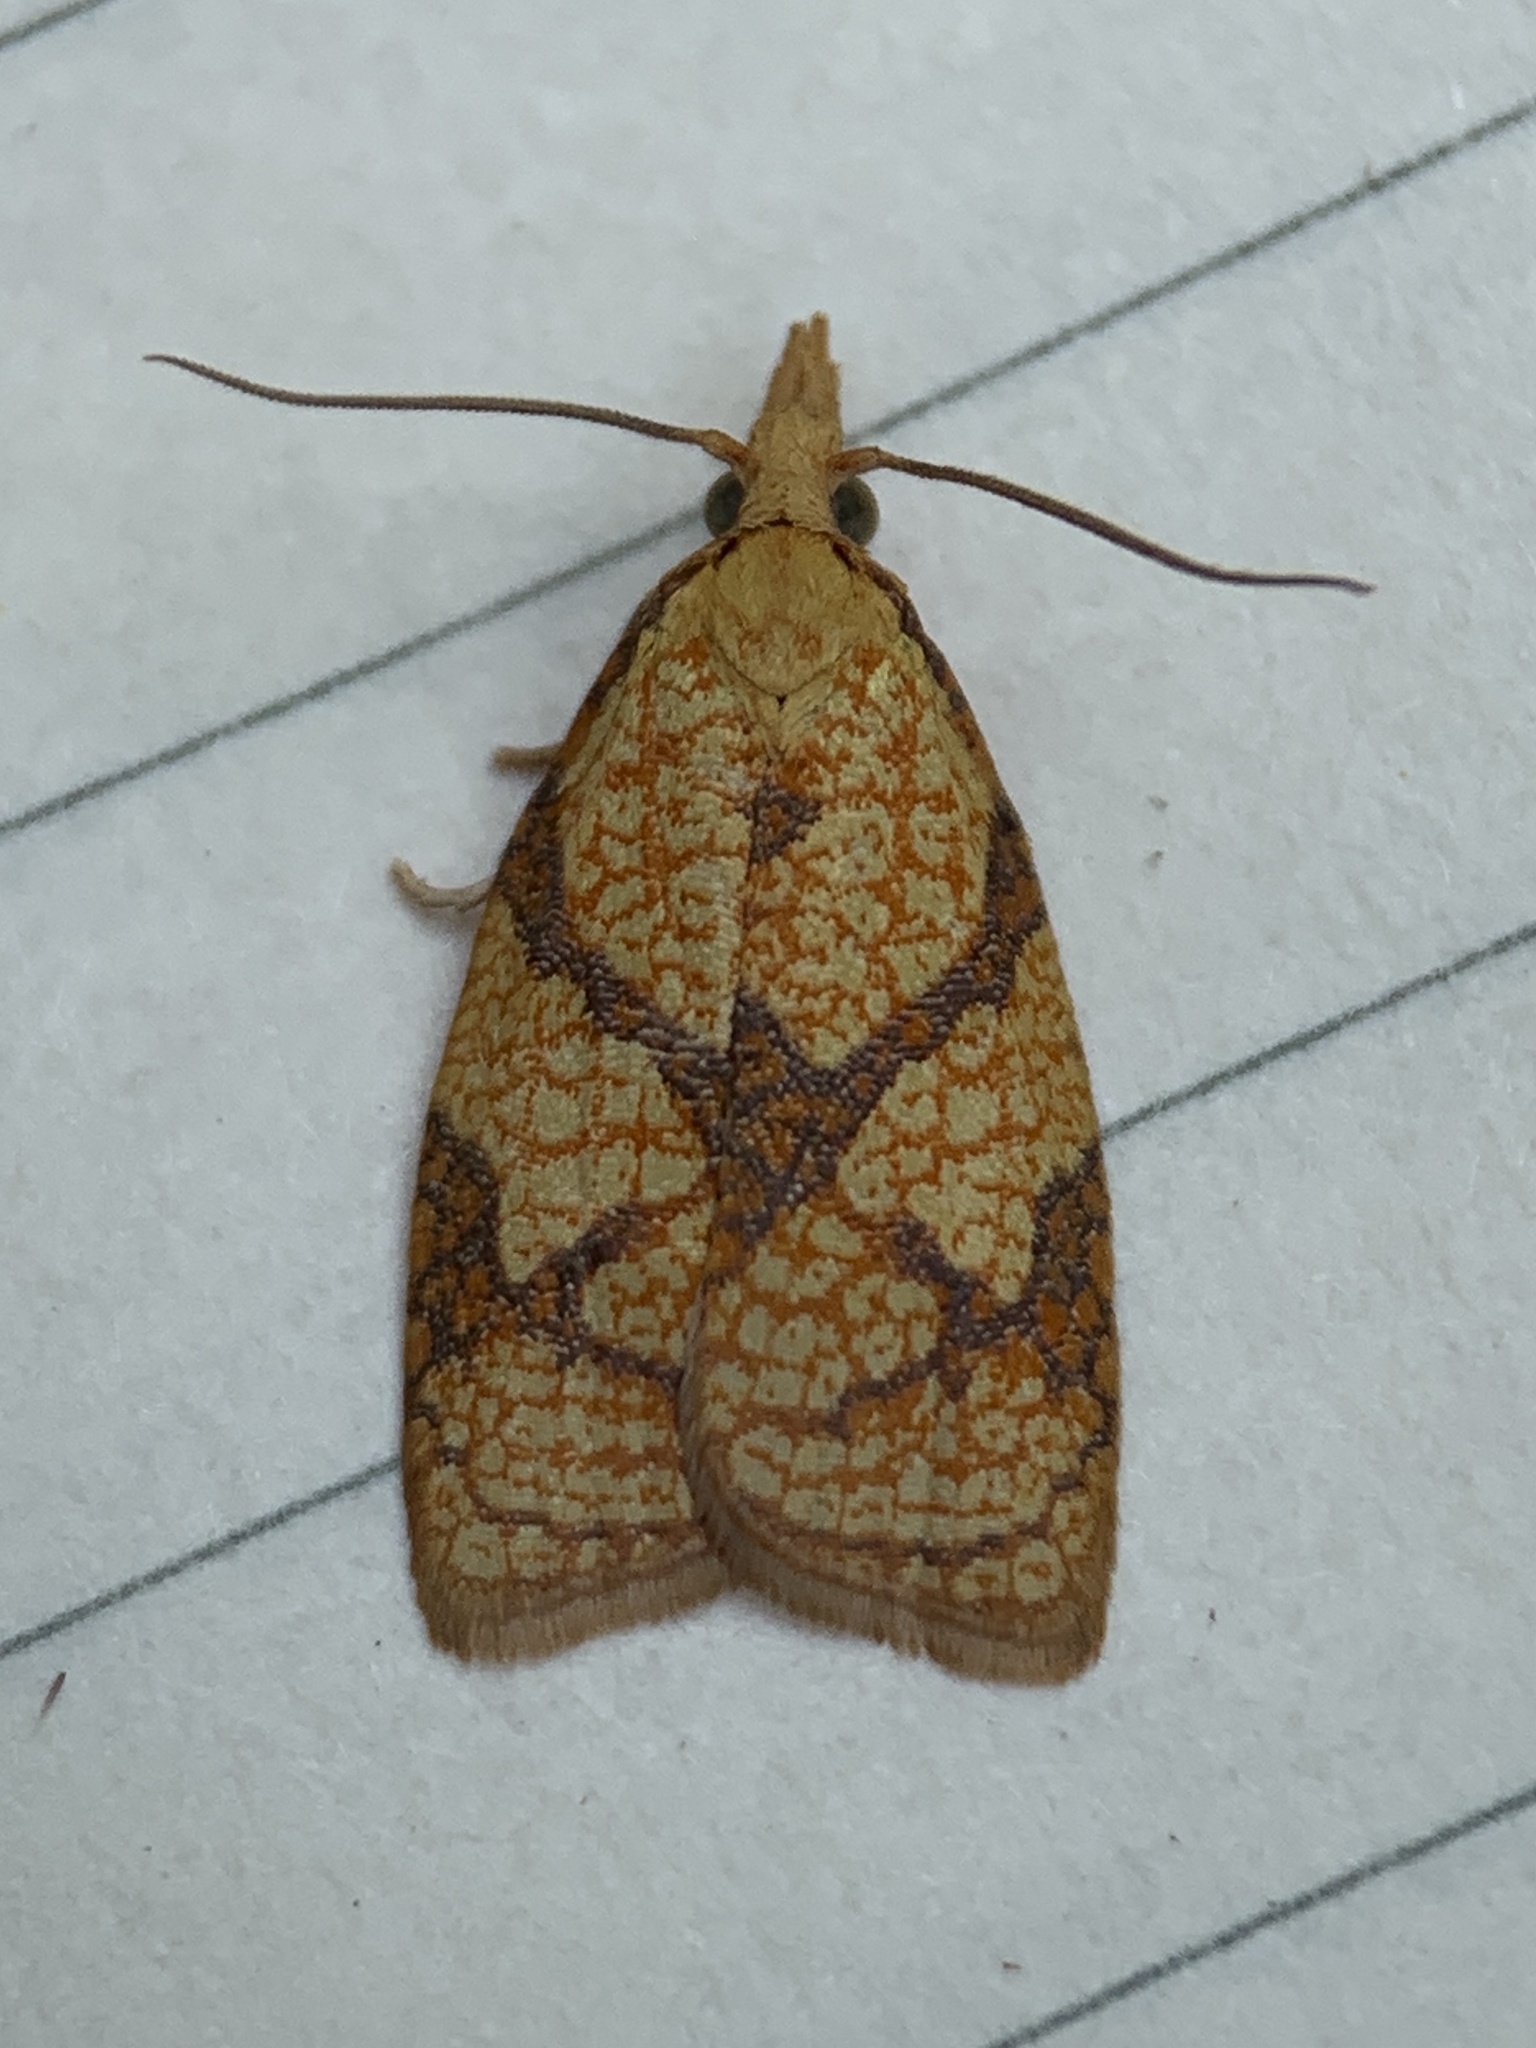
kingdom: Animalia
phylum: Arthropoda
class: Insecta
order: Lepidoptera
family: Tortricidae
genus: Cenopis
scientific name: Cenopis reticulatana
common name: Reticulated fruitworm moth
